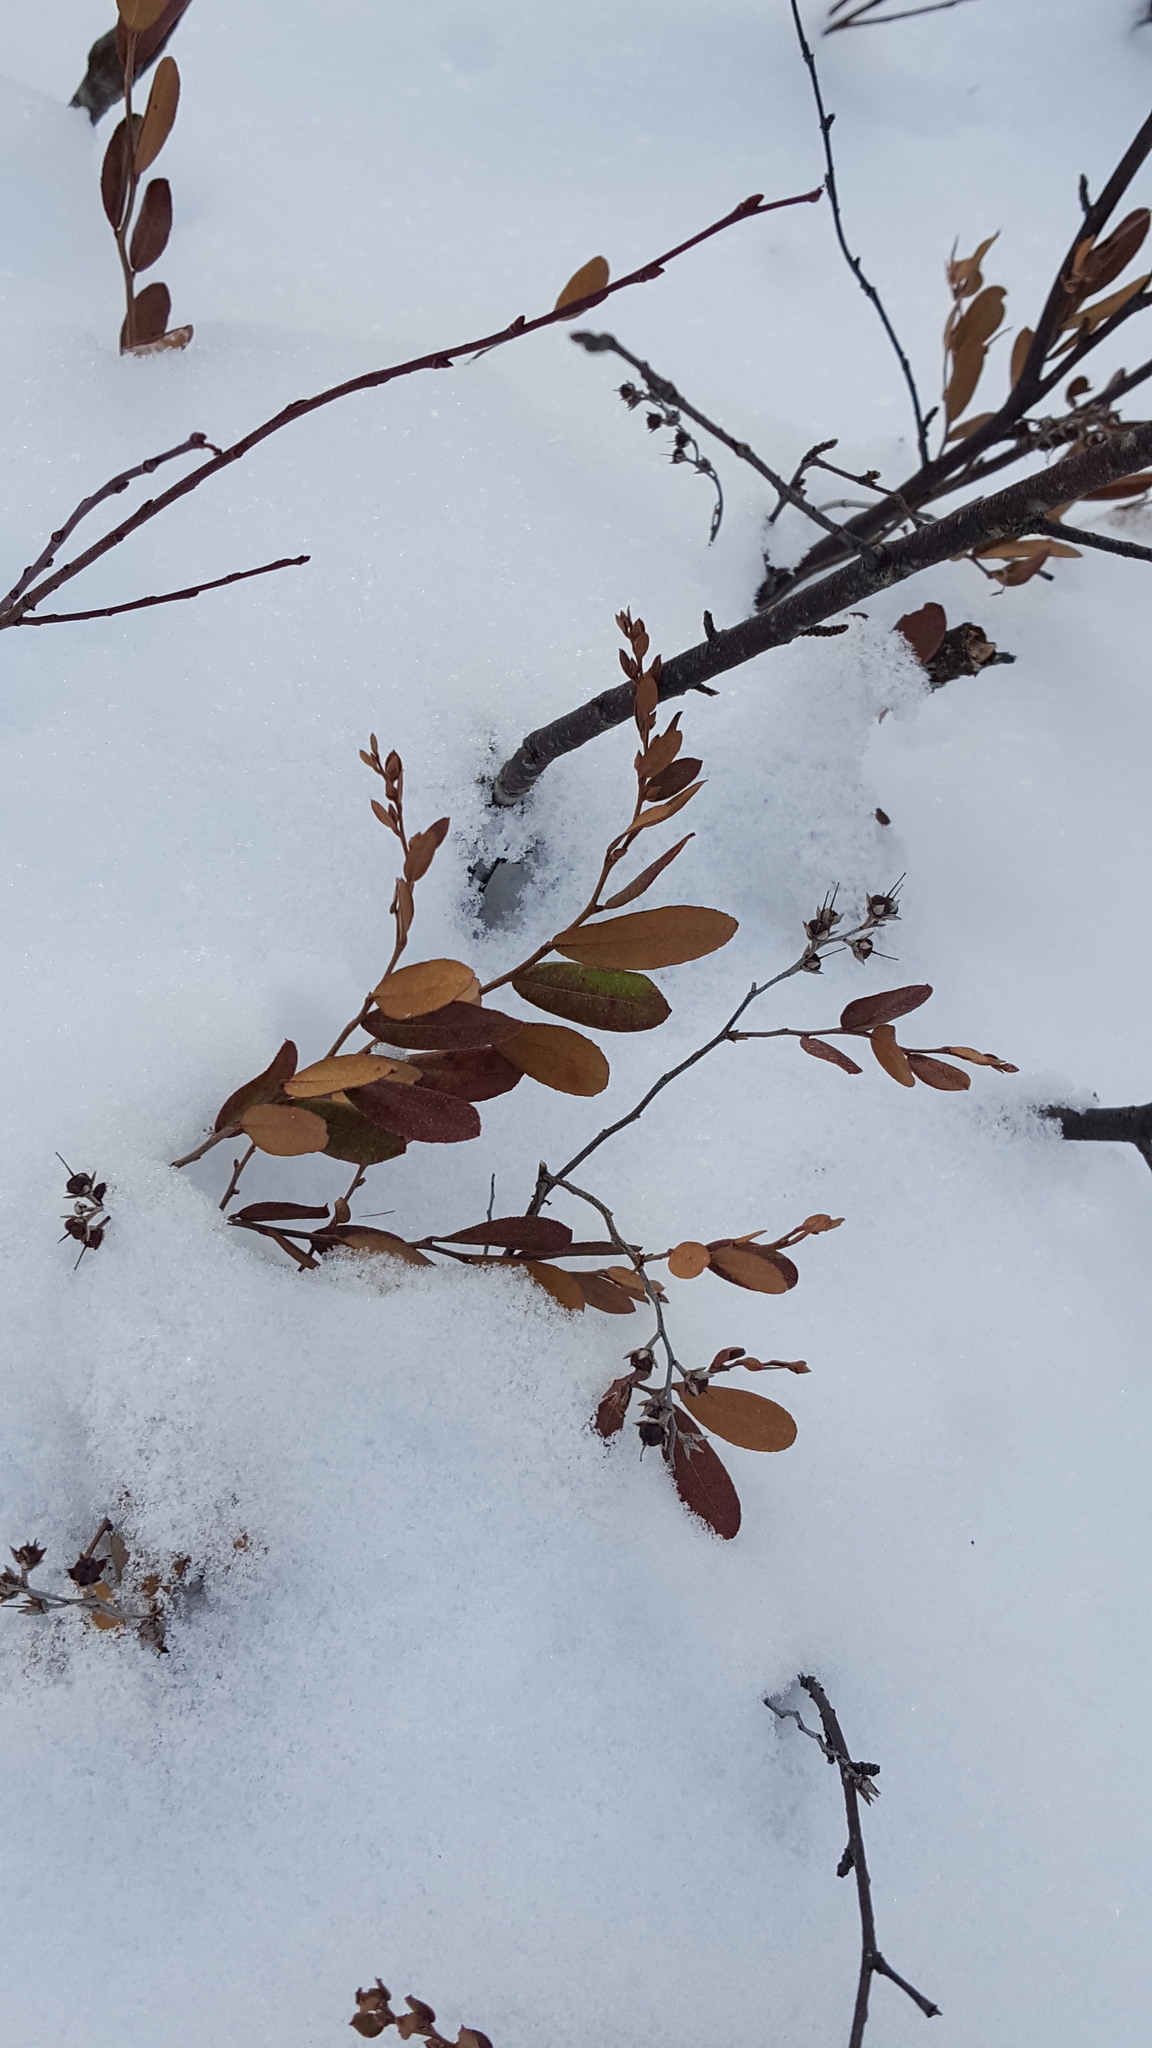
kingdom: Plantae
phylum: Tracheophyta
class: Magnoliopsida
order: Ericales
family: Ericaceae
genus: Chamaedaphne
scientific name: Chamaedaphne calyculata
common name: Leatherleaf
